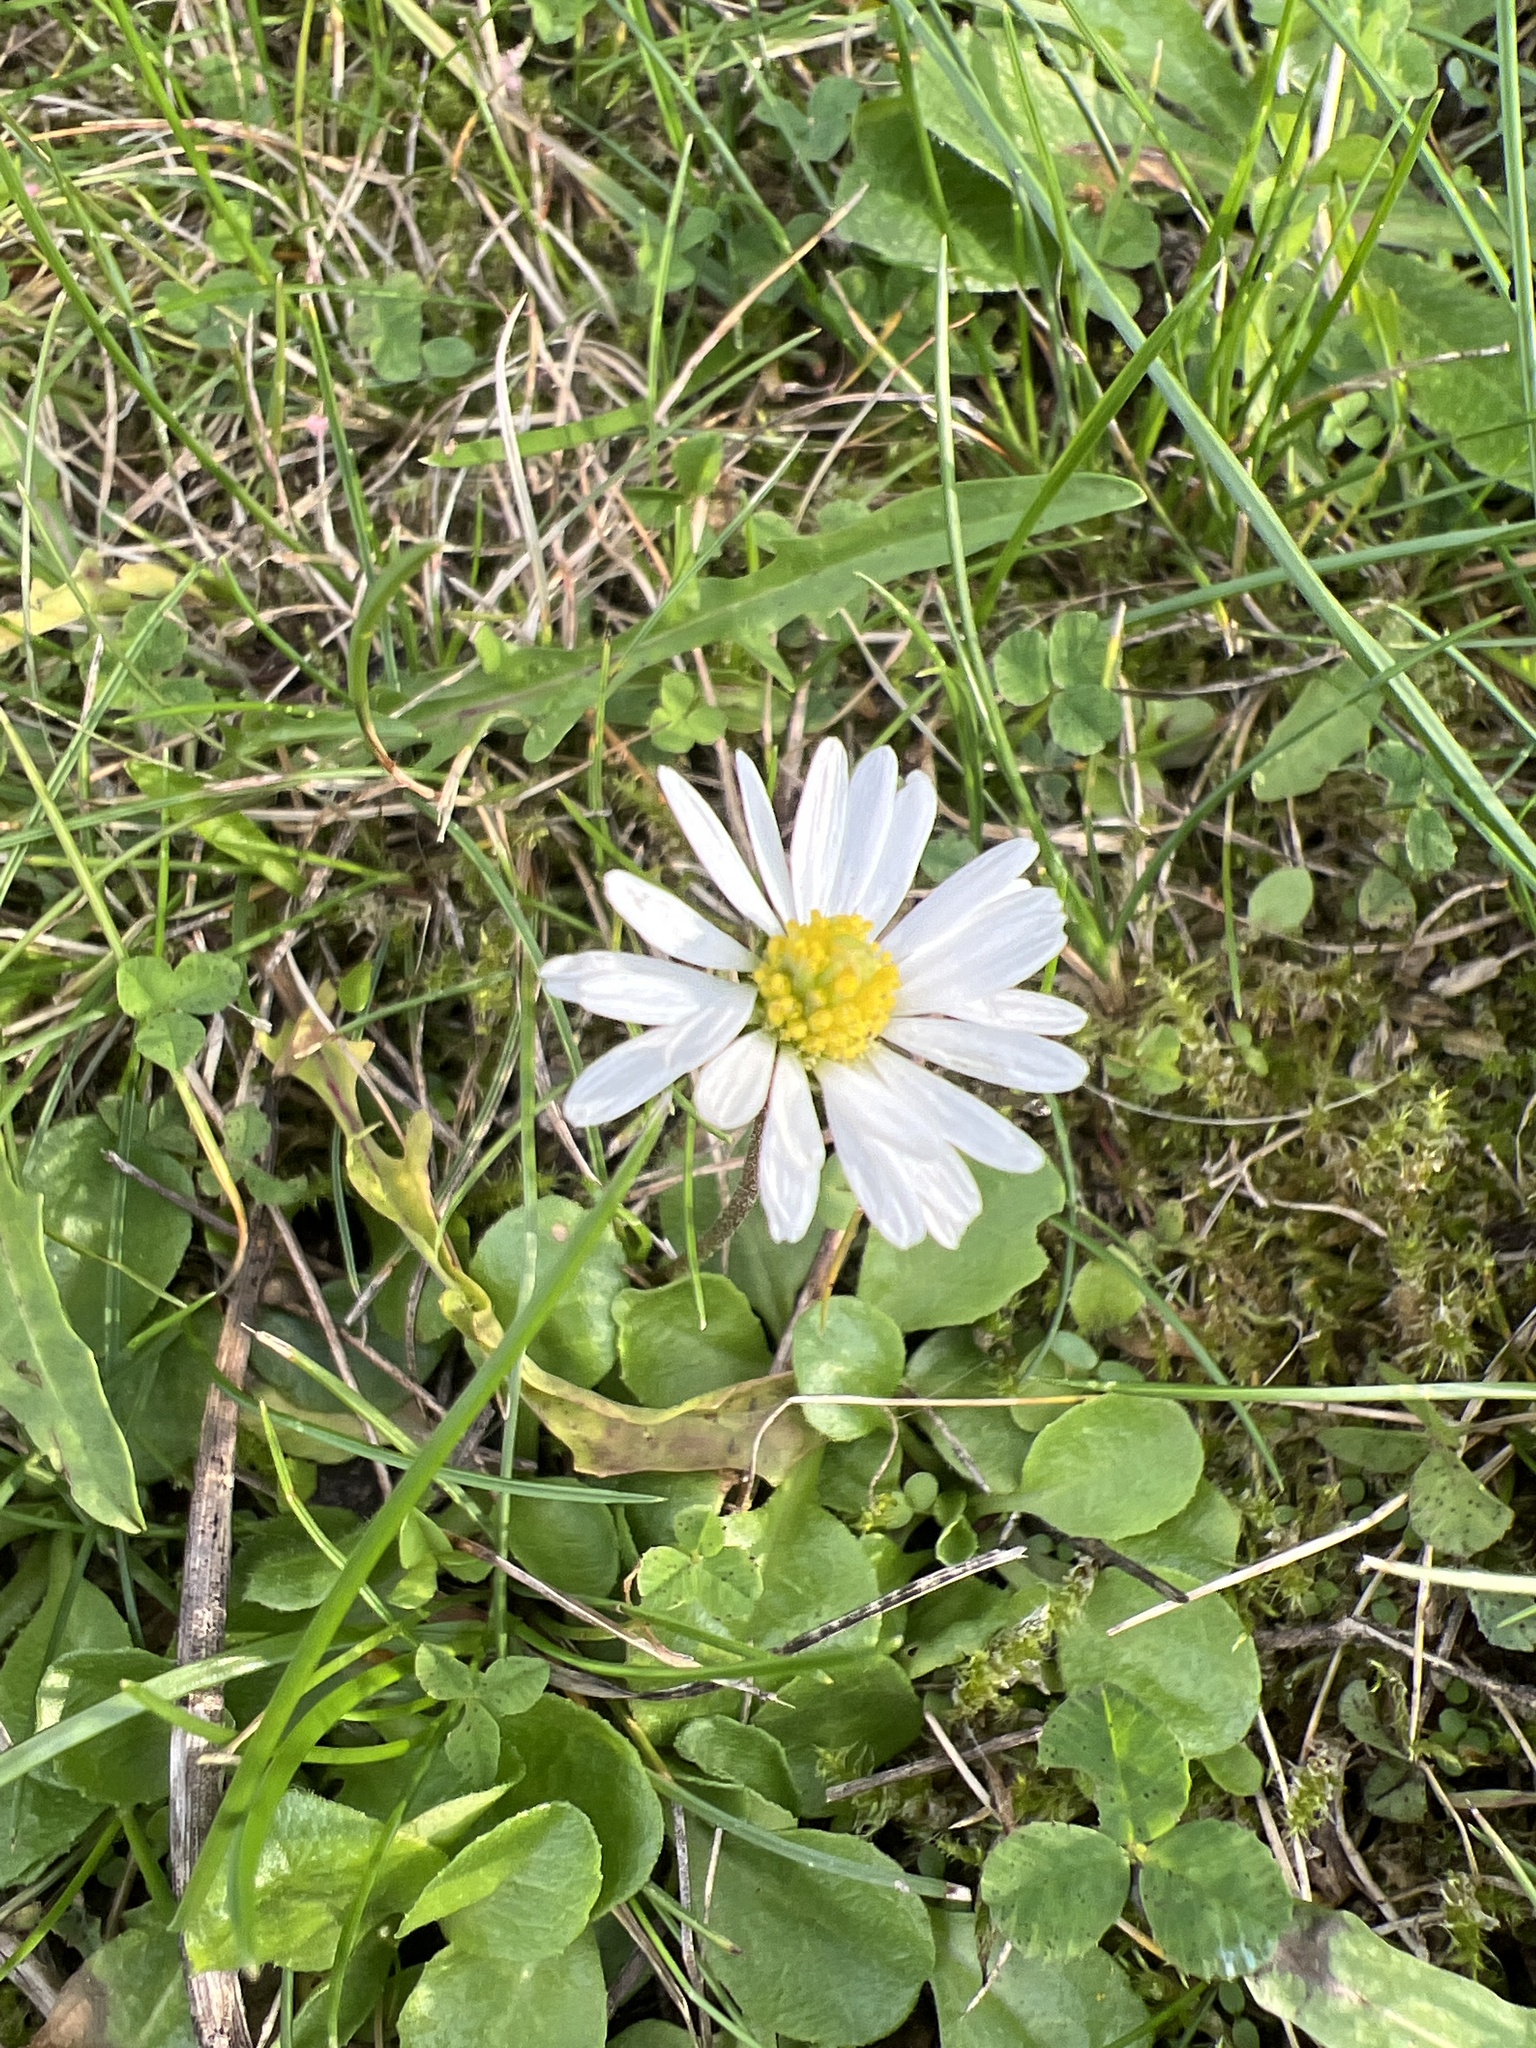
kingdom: Plantae
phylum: Tracheophyta
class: Magnoliopsida
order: Asterales
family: Asteraceae
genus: Bellis
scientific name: Bellis perennis
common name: Lawndaisy
